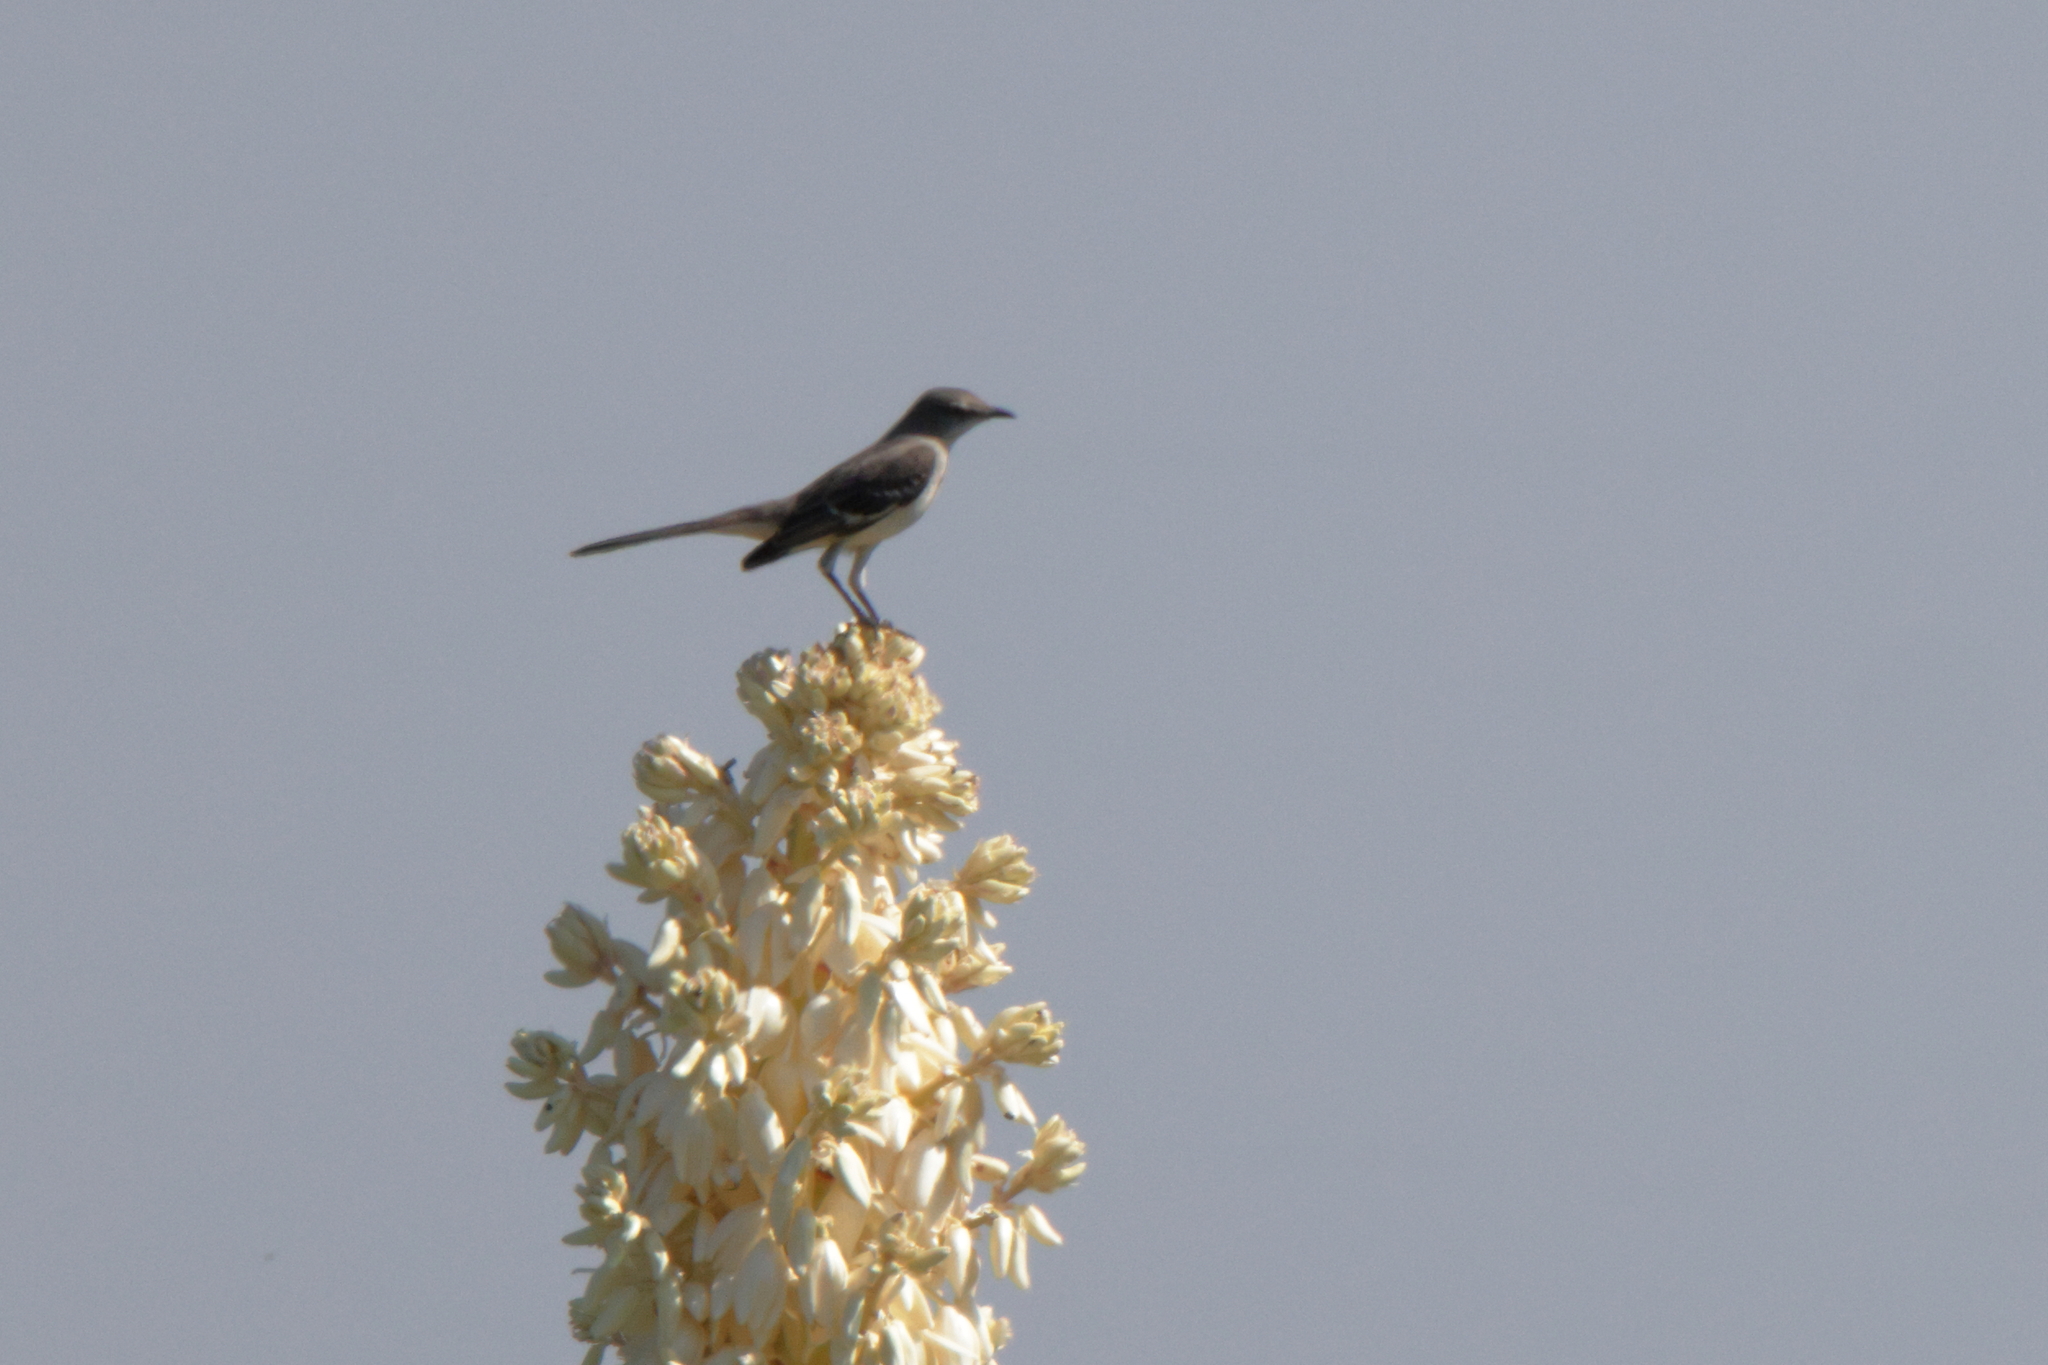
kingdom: Animalia
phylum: Chordata
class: Aves
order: Passeriformes
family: Mimidae
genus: Mimus
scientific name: Mimus polyglottos
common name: Northern mockingbird
